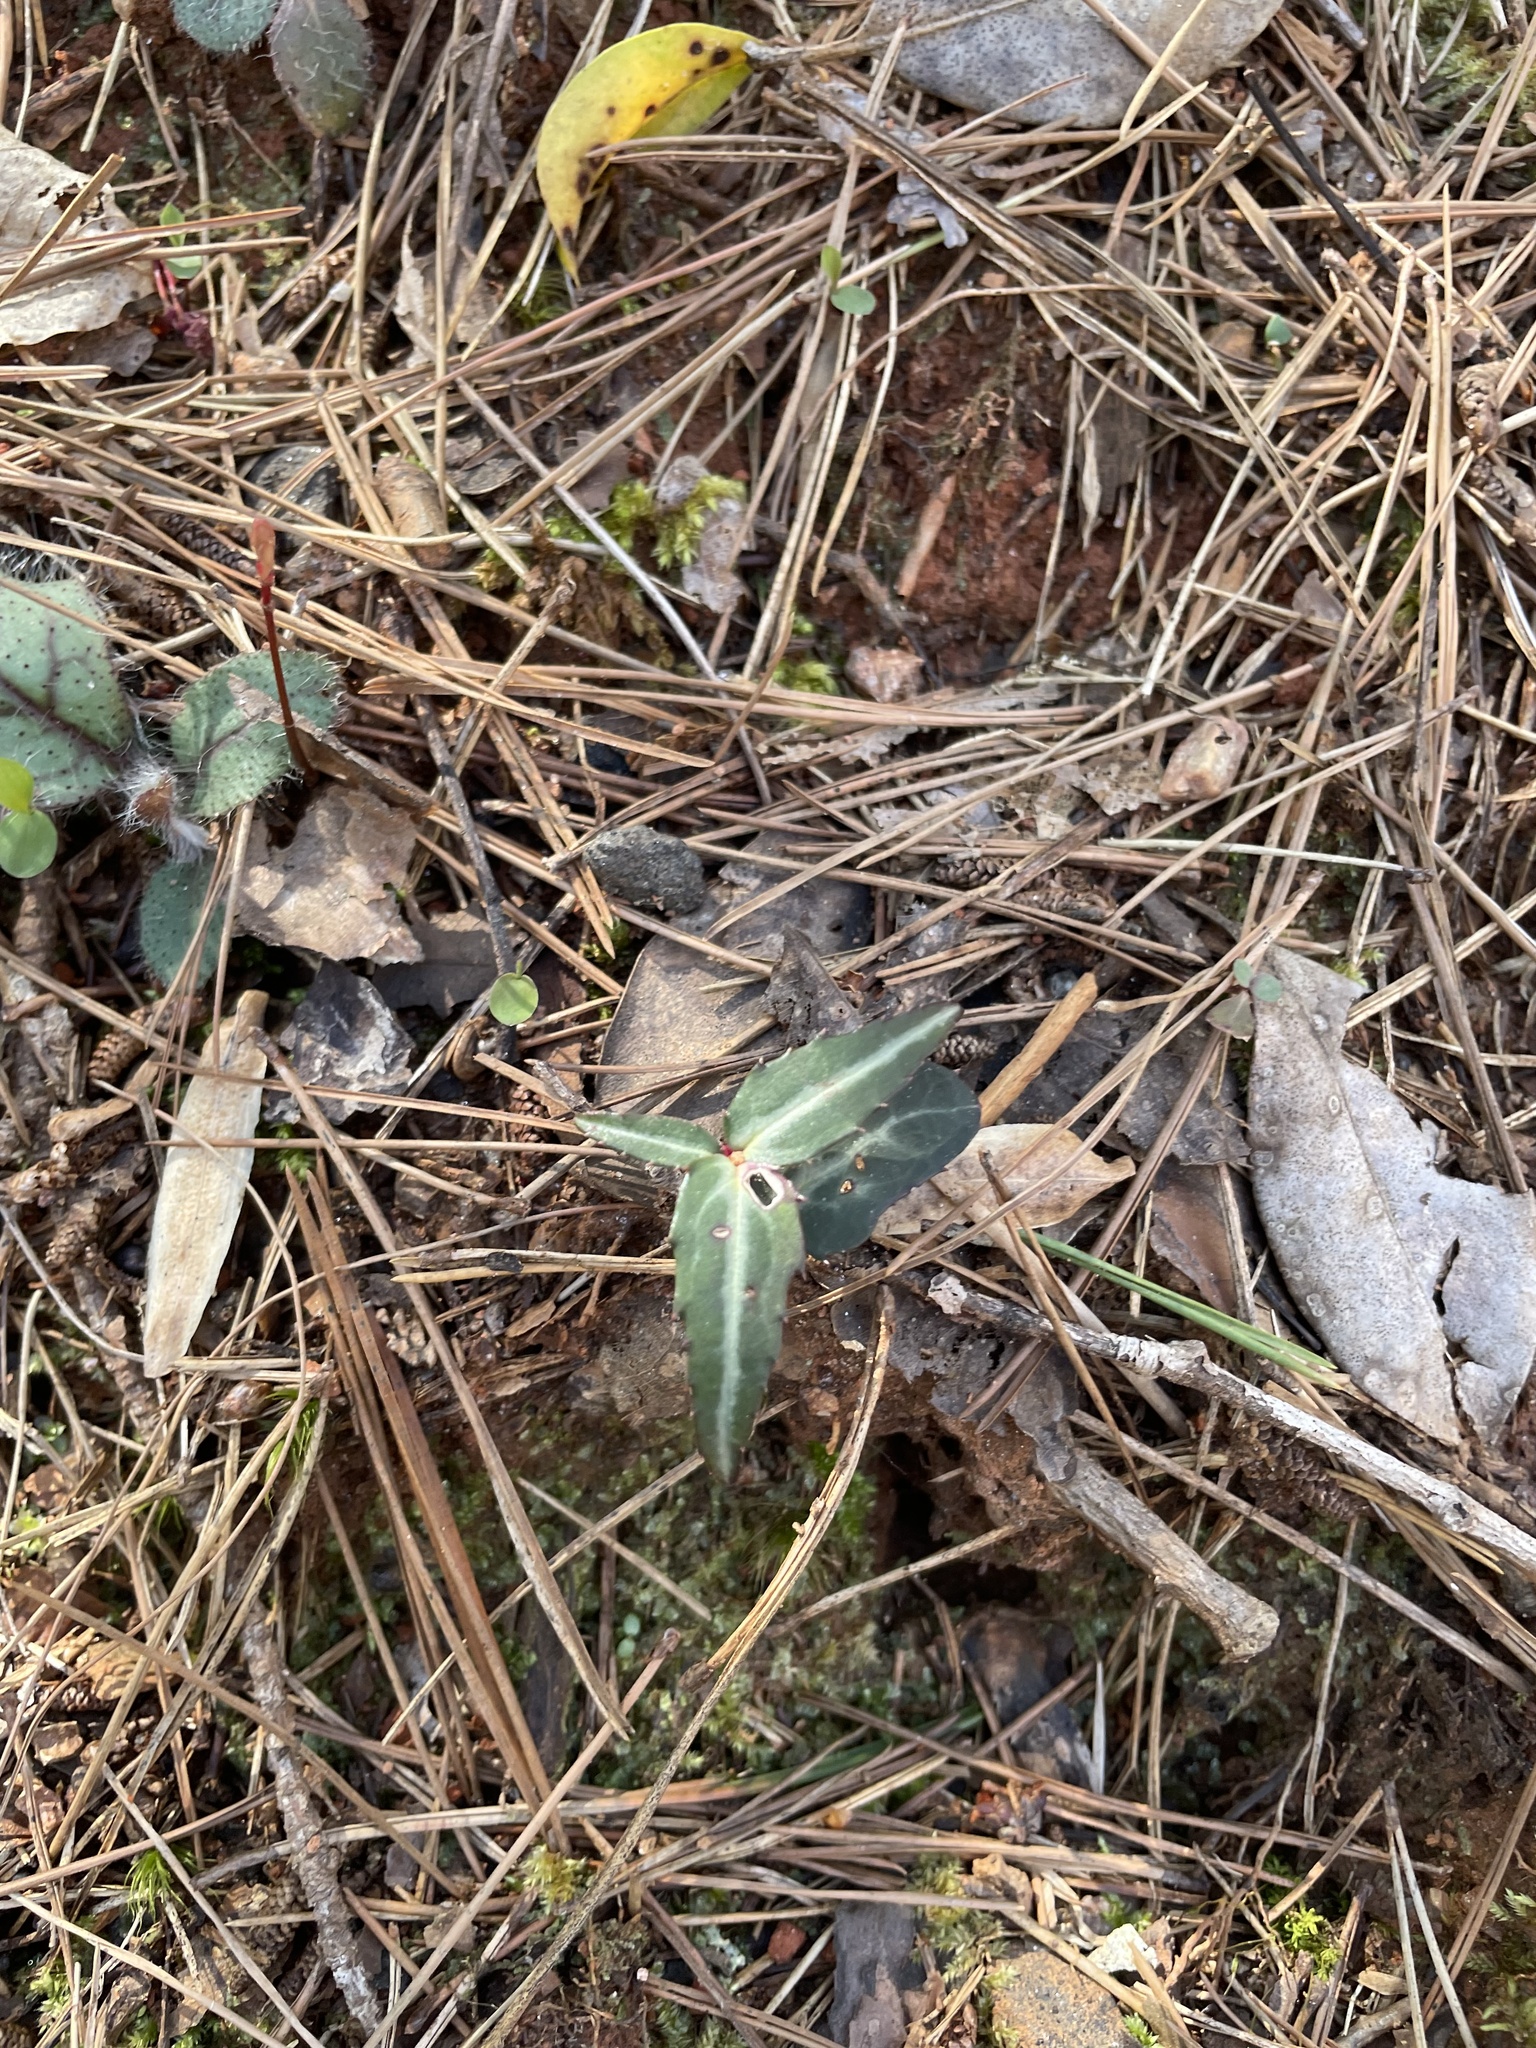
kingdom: Plantae
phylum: Tracheophyta
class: Magnoliopsida
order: Ericales
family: Ericaceae
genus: Chimaphila
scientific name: Chimaphila maculata
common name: Spotted pipsissewa
